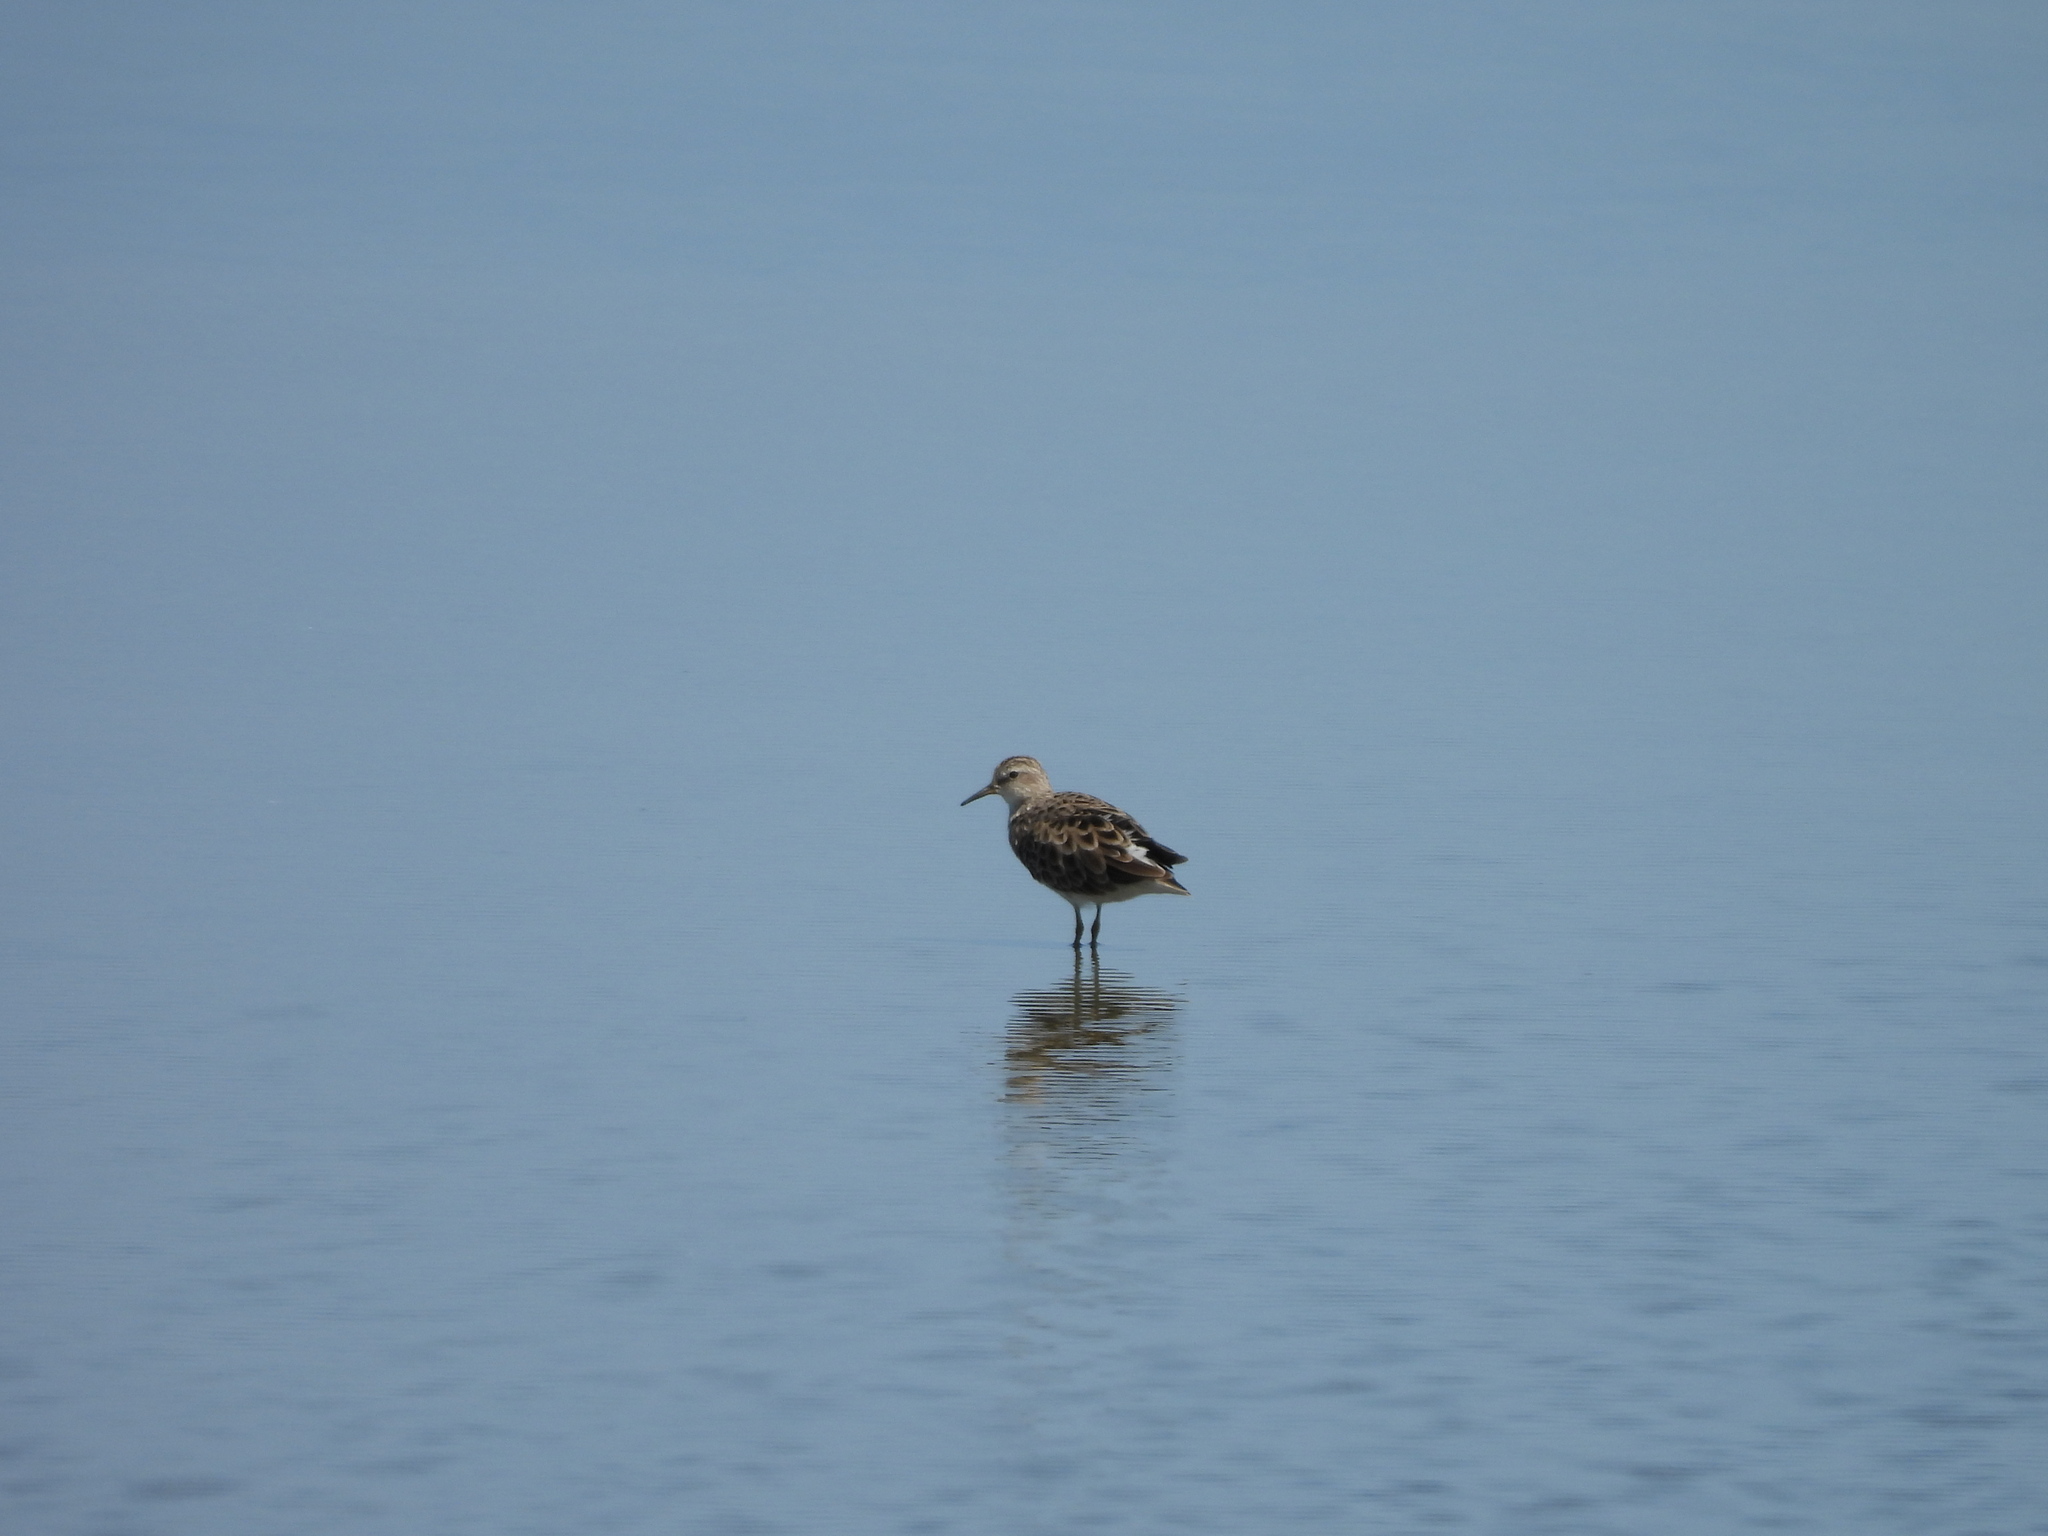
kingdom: Animalia
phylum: Chordata
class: Aves
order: Charadriiformes
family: Scolopacidae
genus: Calidris
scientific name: Calidris subminuta
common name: Long-toed stint
